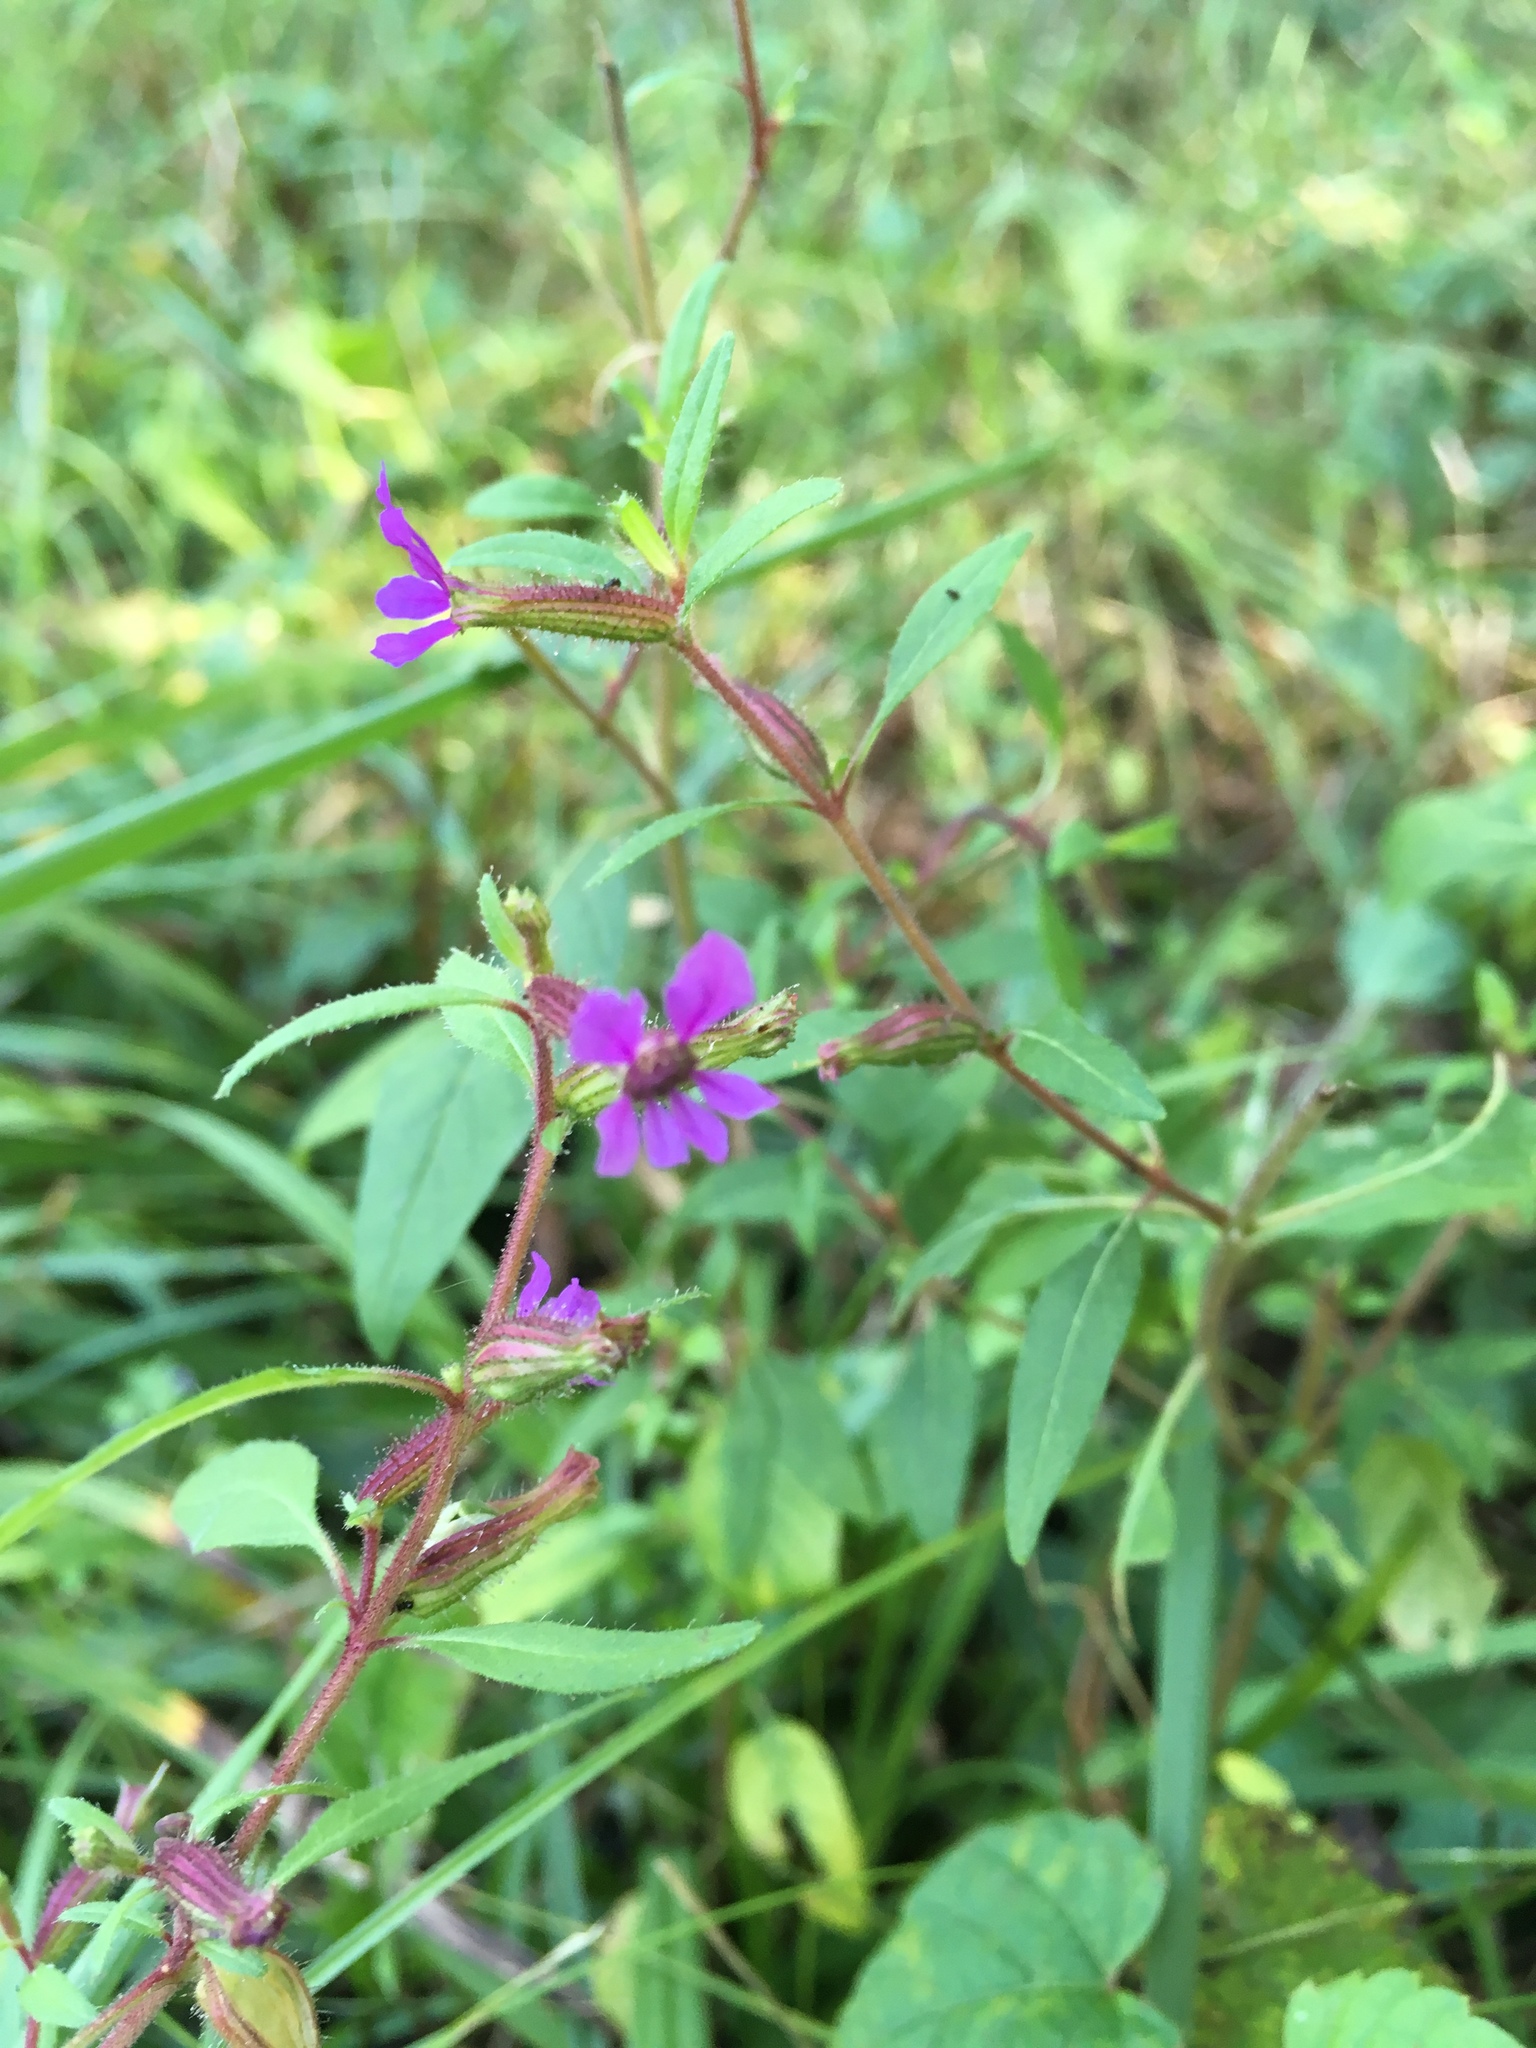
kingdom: Plantae
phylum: Tracheophyta
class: Magnoliopsida
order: Myrtales
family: Lythraceae
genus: Cuphea
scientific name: Cuphea viscosissima
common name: Clammy cuphea
